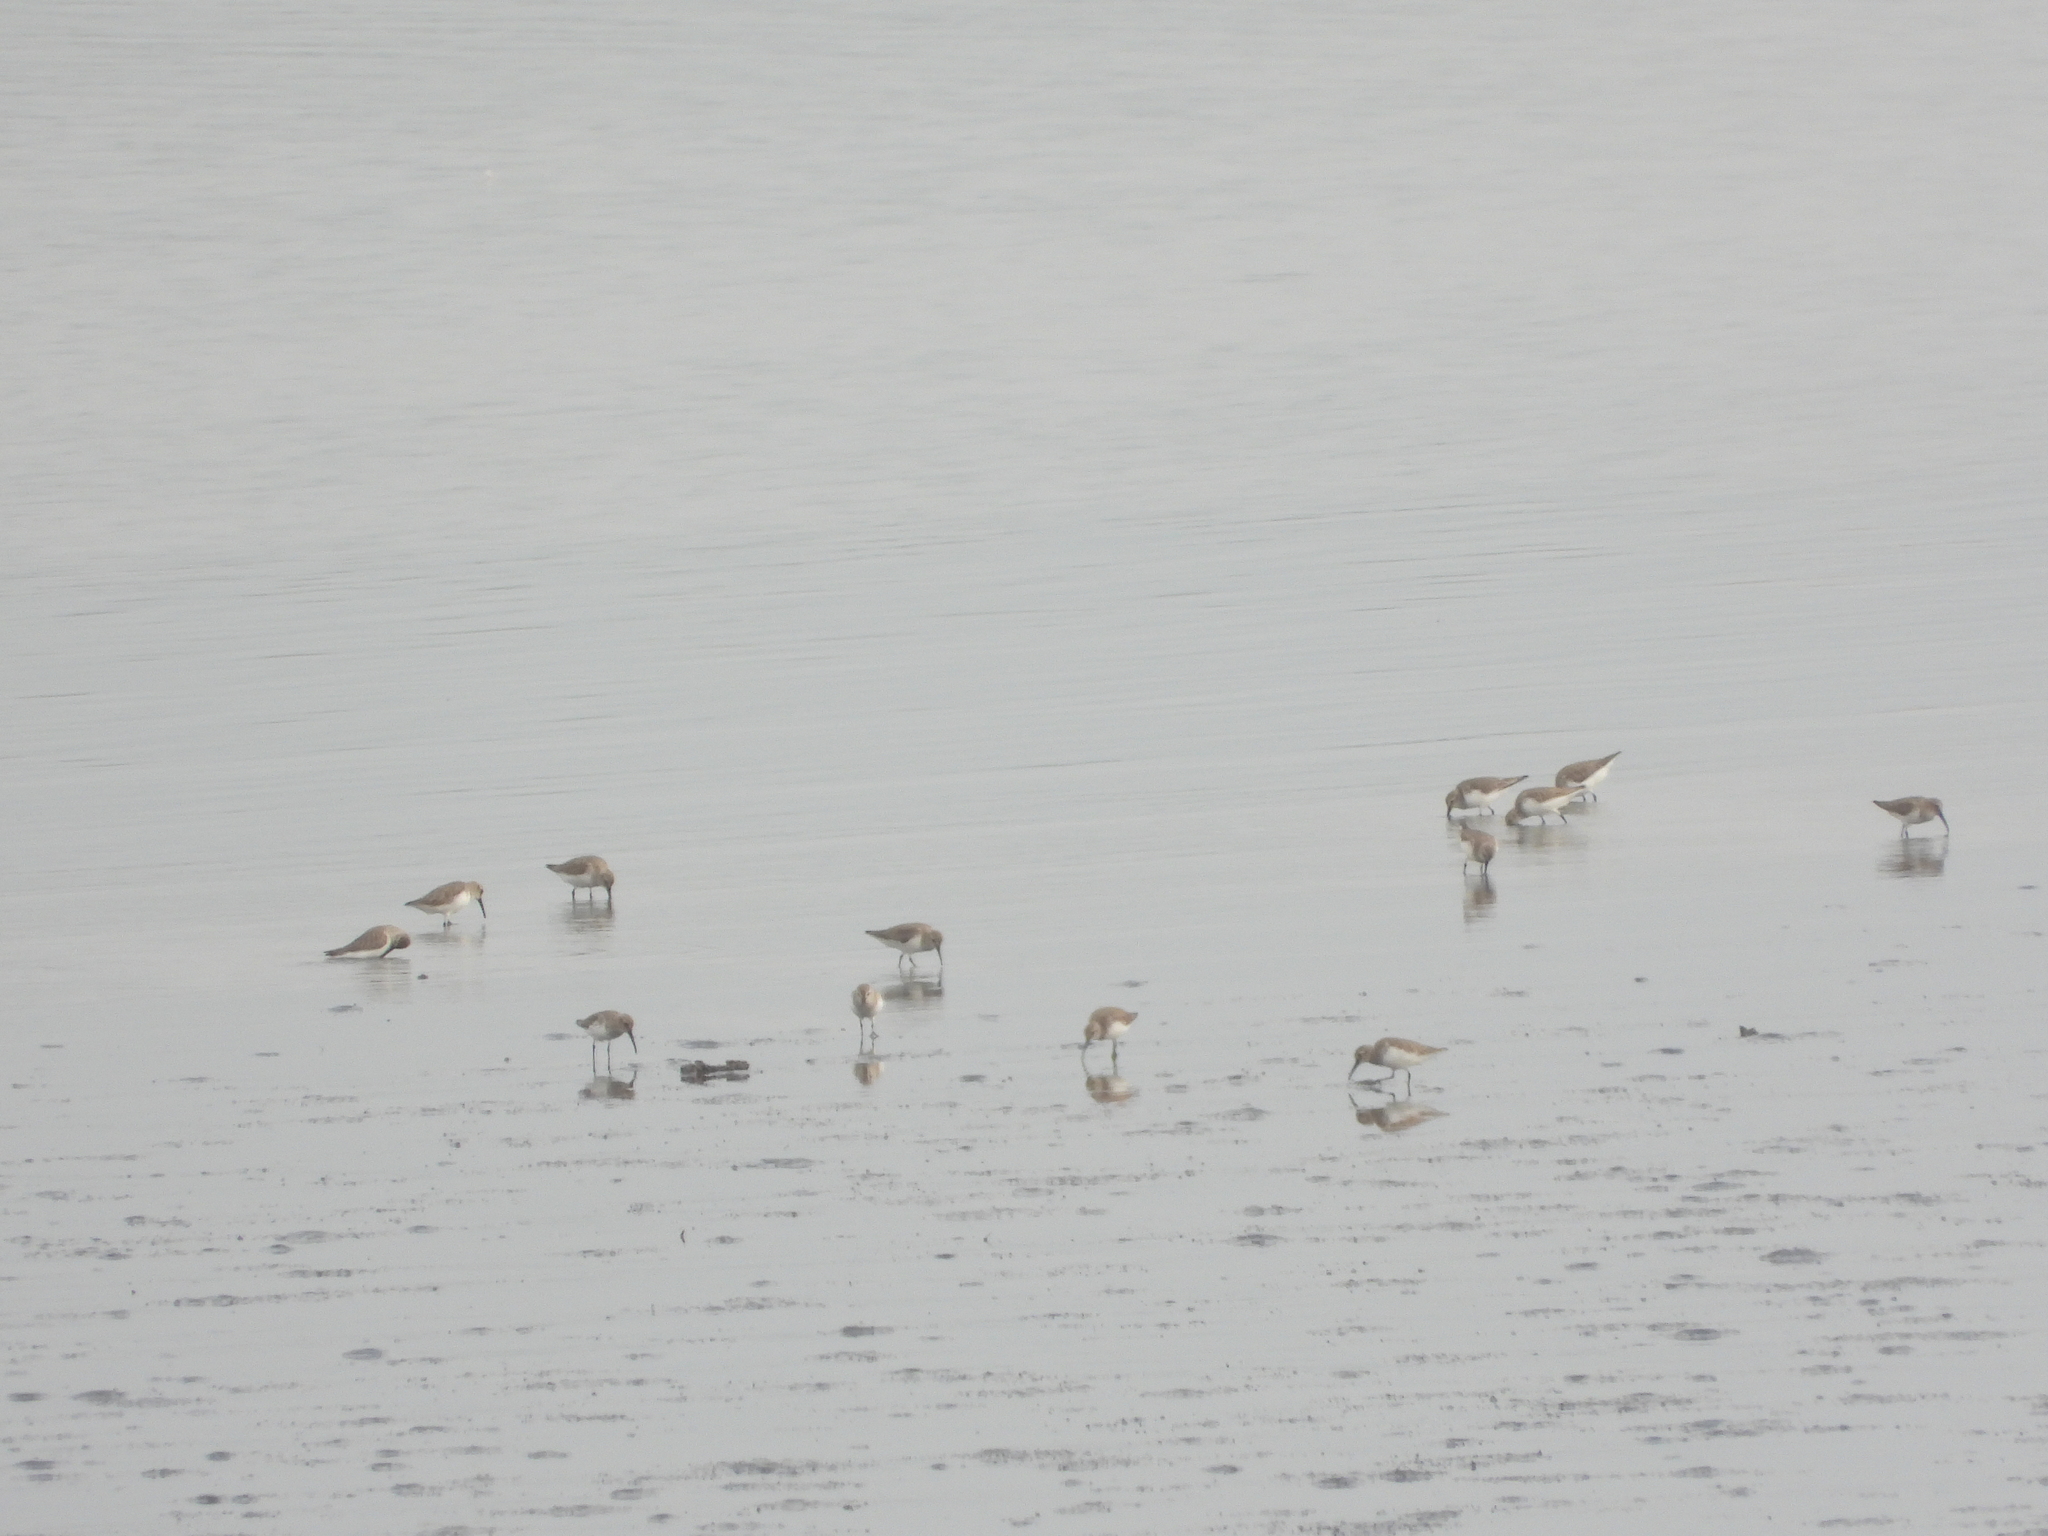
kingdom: Animalia
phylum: Chordata
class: Aves
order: Charadriiformes
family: Scolopacidae
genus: Calidris
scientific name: Calidris alpina
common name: Dunlin
